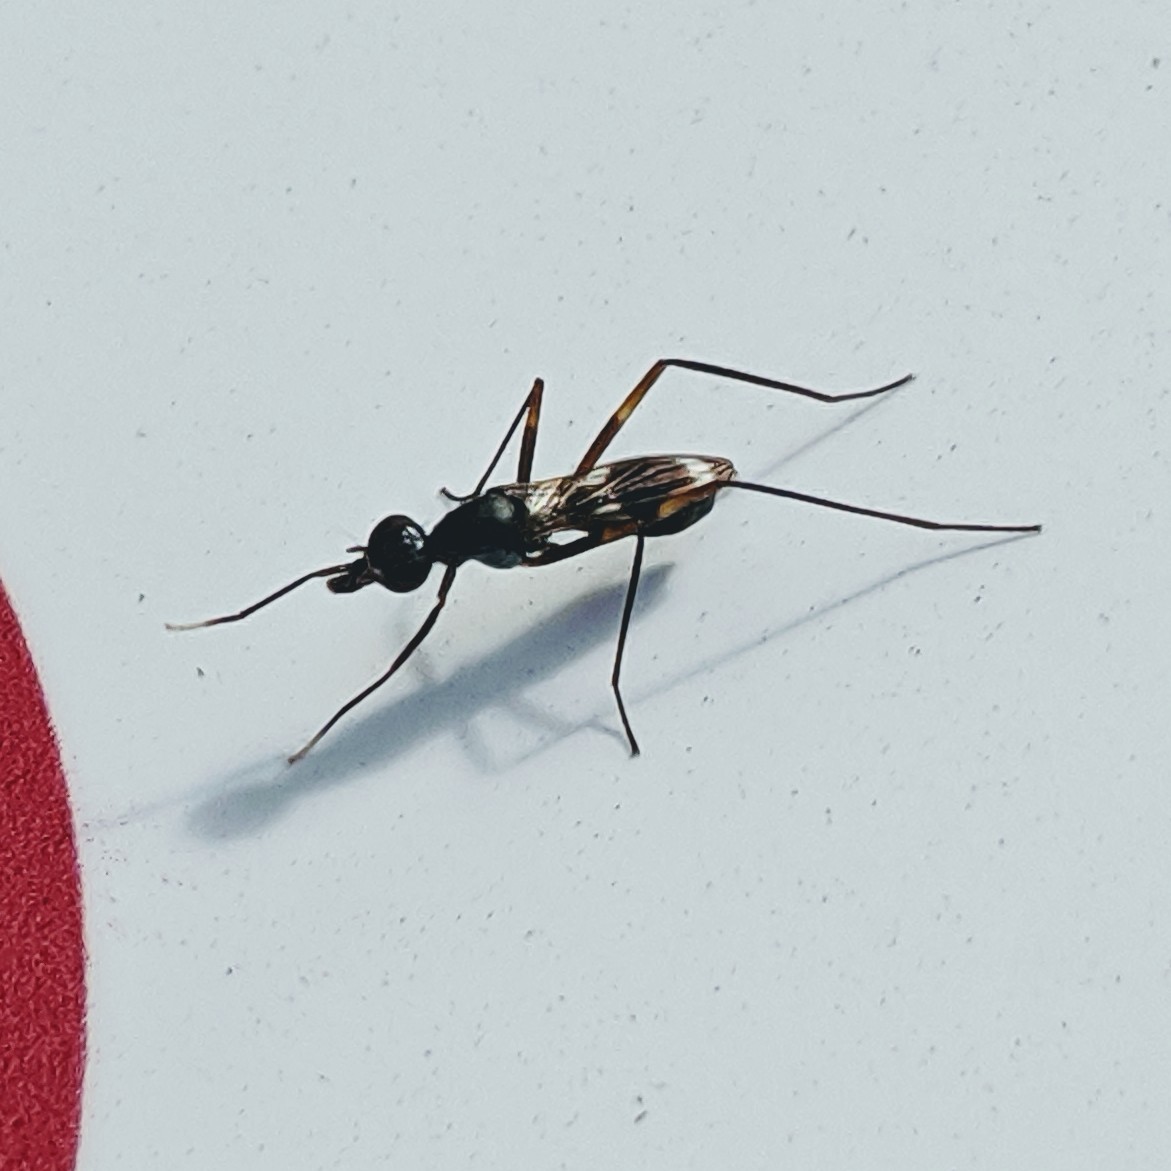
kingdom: Animalia
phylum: Arthropoda
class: Insecta
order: Diptera
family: Micropezidae
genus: Taeniaptera
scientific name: Taeniaptera trivittata
